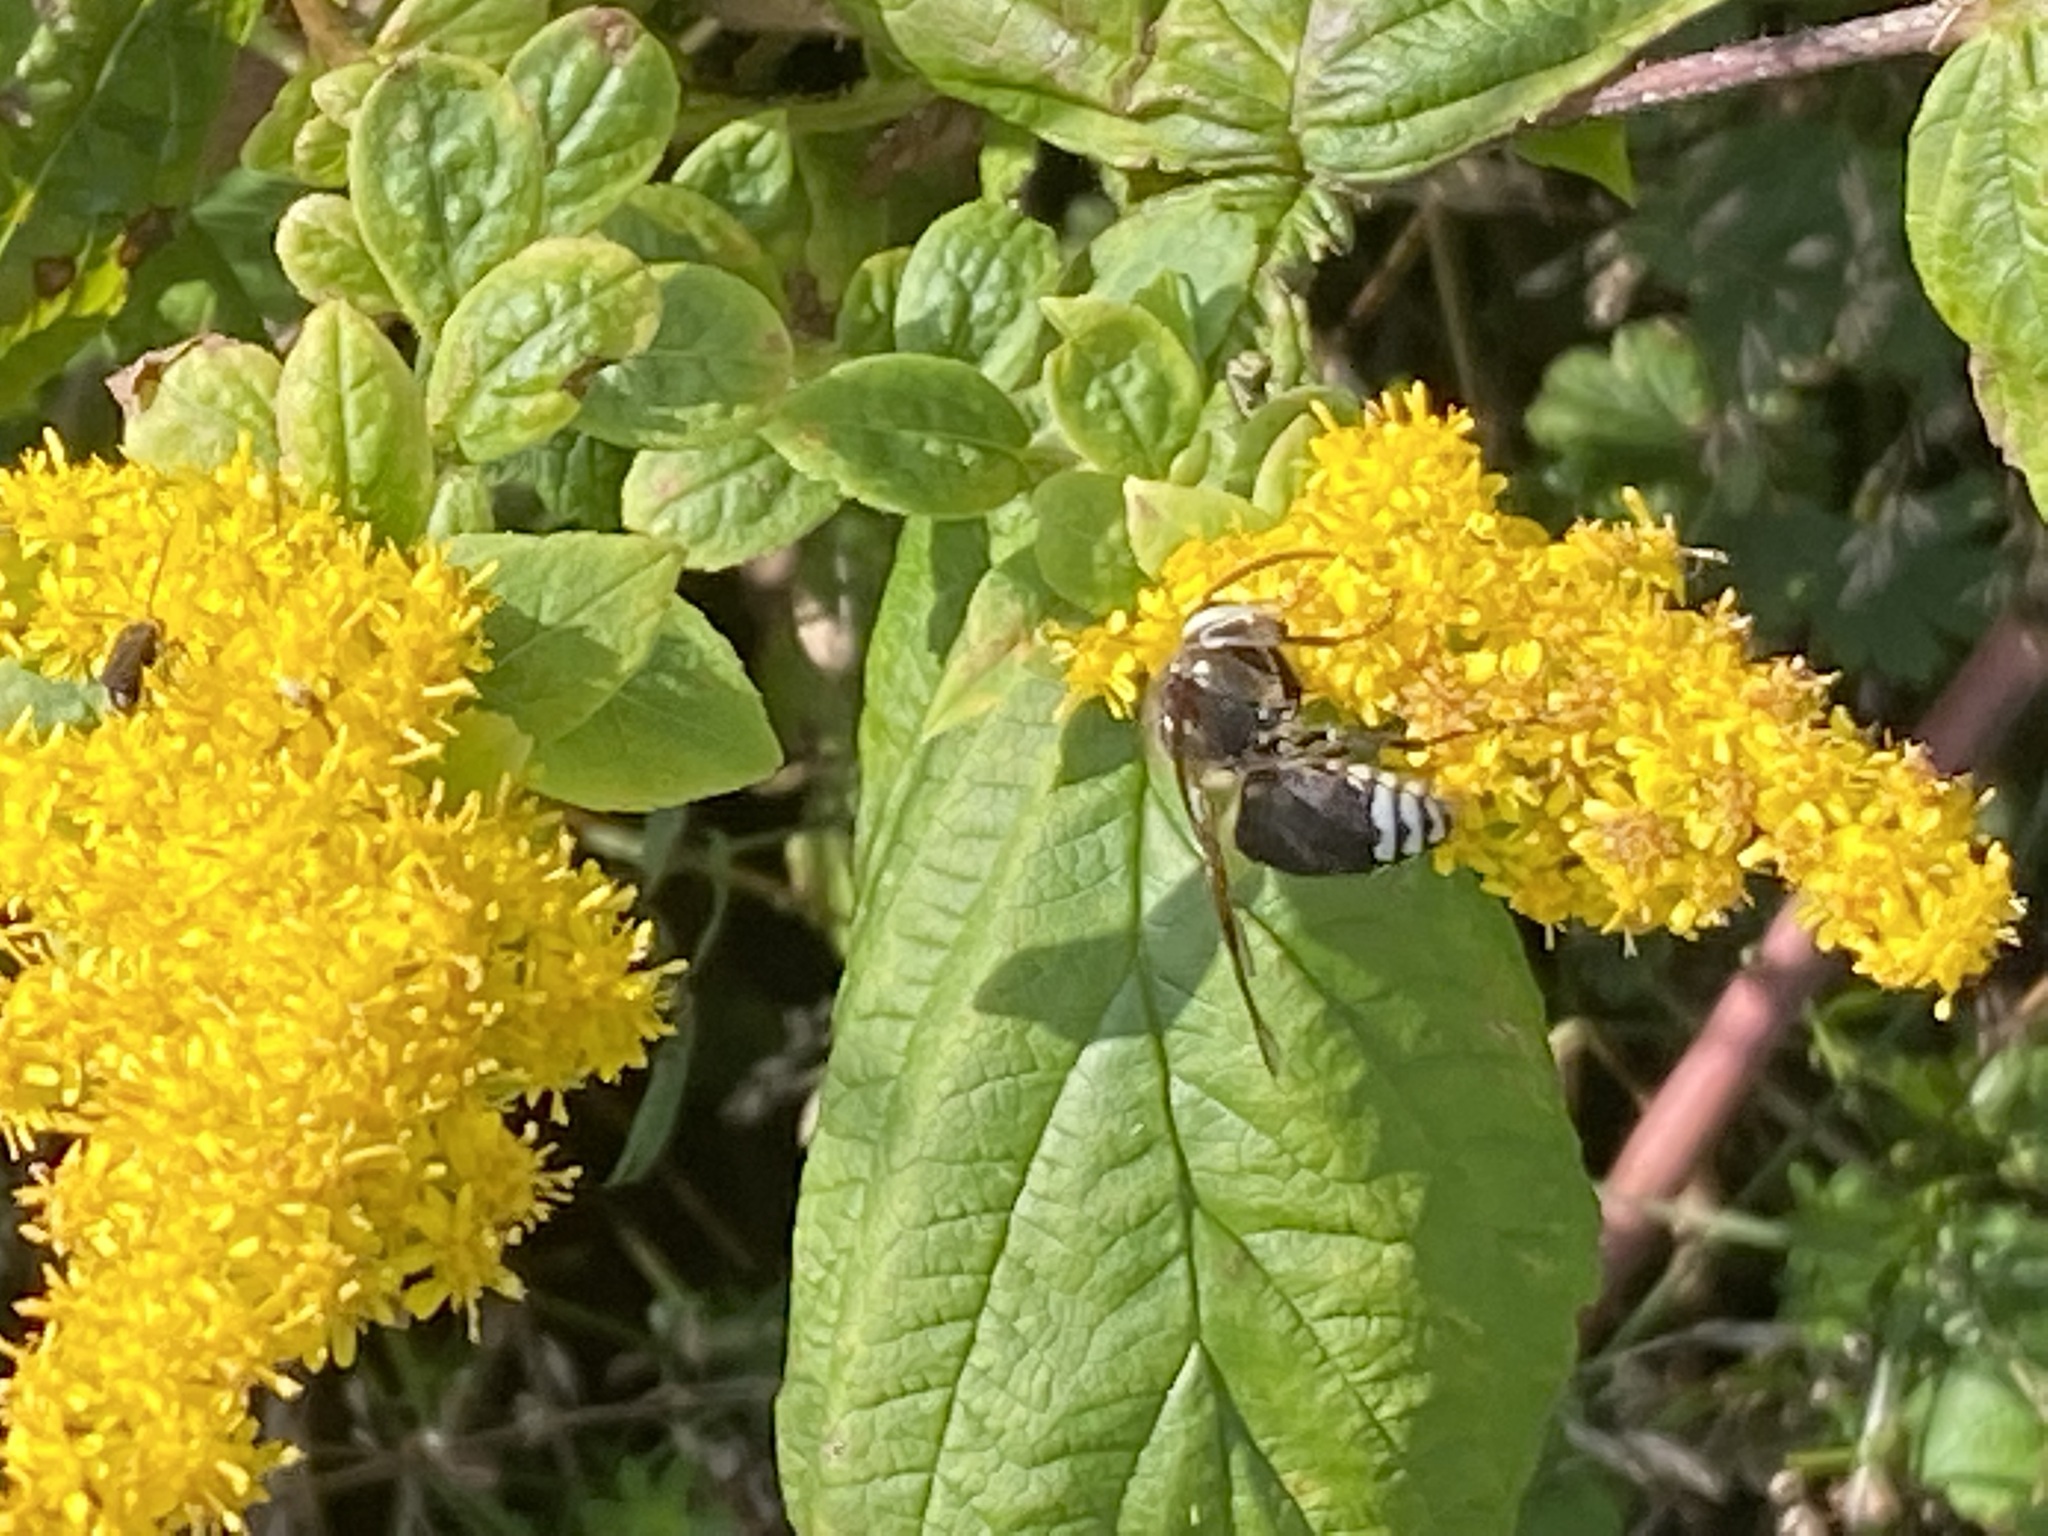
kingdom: Animalia
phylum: Arthropoda
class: Insecta
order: Hymenoptera
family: Vespidae
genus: Dolichovespula
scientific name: Dolichovespula maculata
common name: Bald-faced hornet
